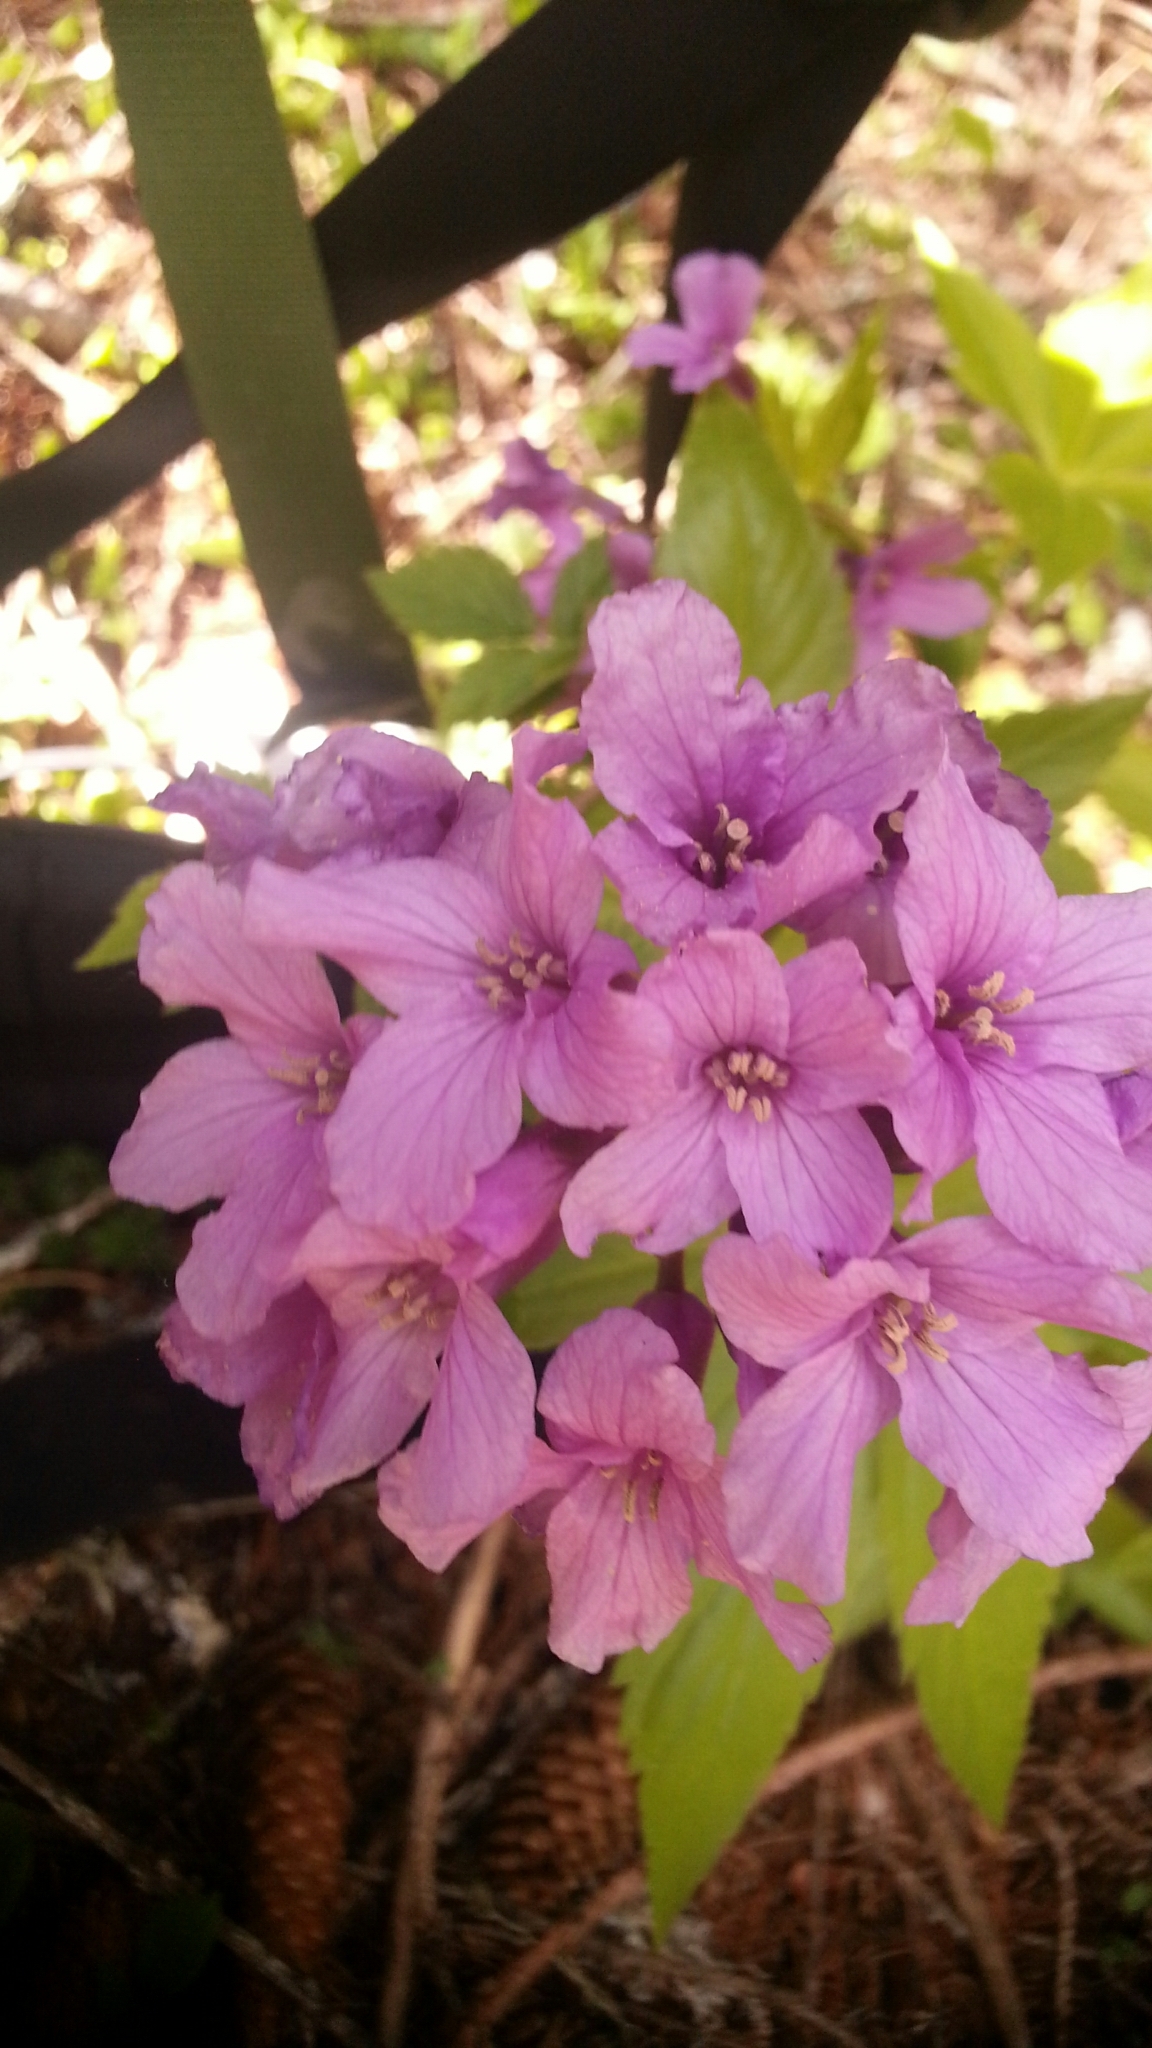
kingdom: Plantae
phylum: Tracheophyta
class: Magnoliopsida
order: Brassicales
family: Brassicaceae
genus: Cardamine
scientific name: Cardamine pentaphyllos
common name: Five-leaflet bitter-cress
